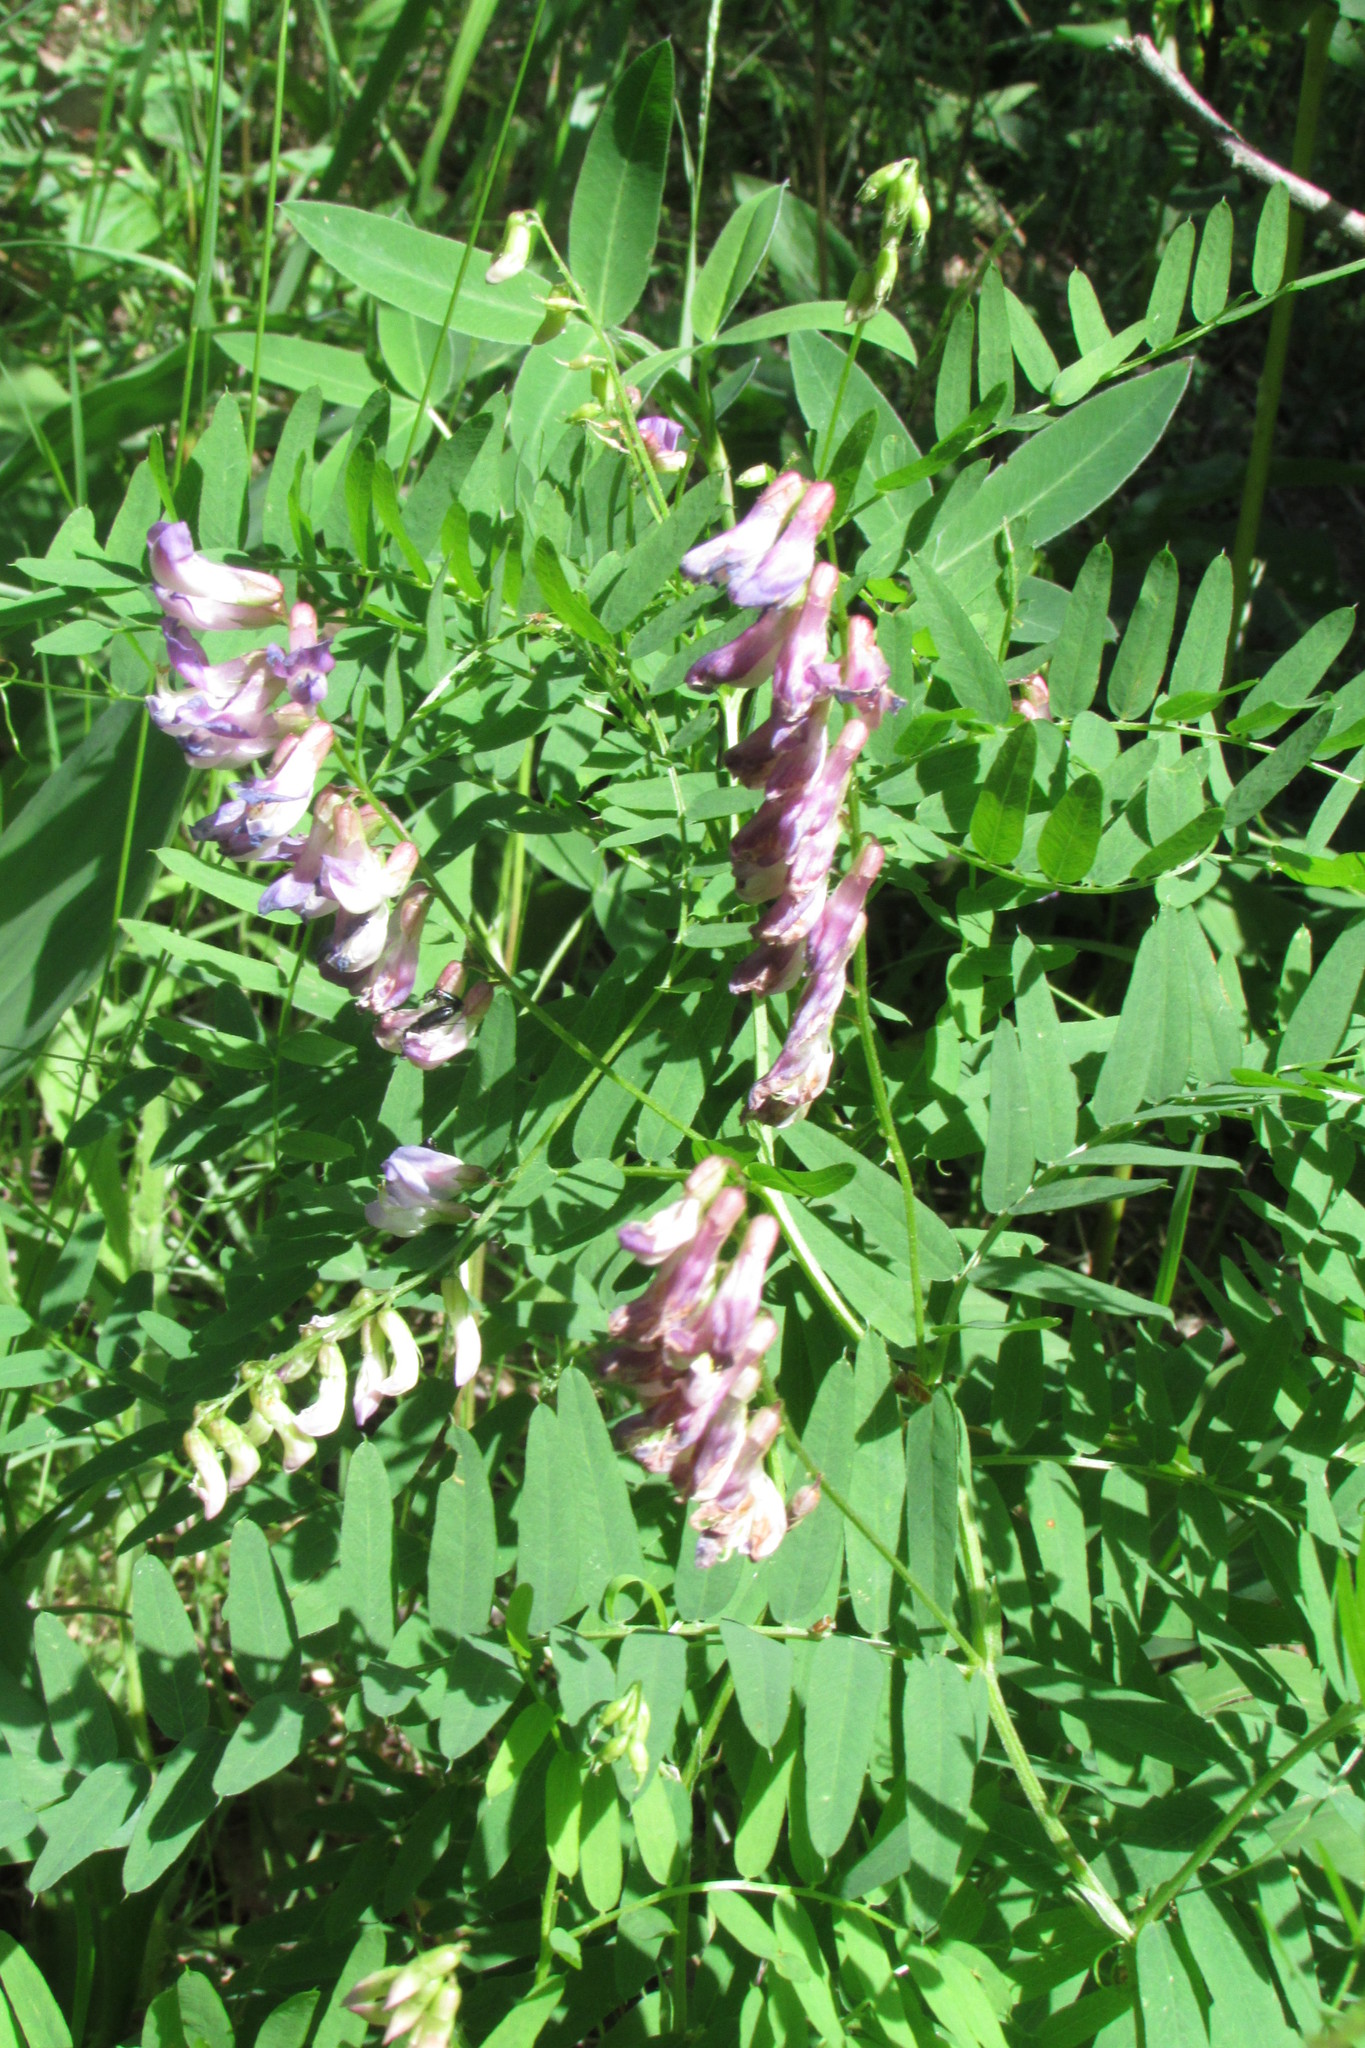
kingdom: Plantae
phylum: Tracheophyta
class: Magnoliopsida
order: Fabales
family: Fabaceae
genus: Vicia
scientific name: Vicia cassubica
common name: Danzig vetch
